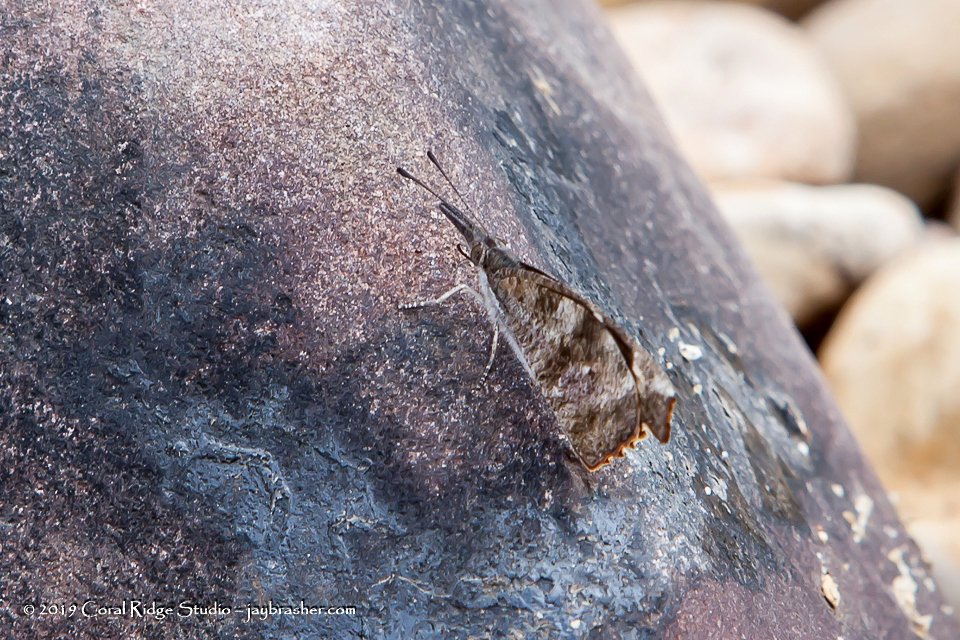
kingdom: Animalia
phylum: Arthropoda
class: Insecta
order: Lepidoptera
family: Nymphalidae
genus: Libytheana
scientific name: Libytheana carinenta
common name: American snout
